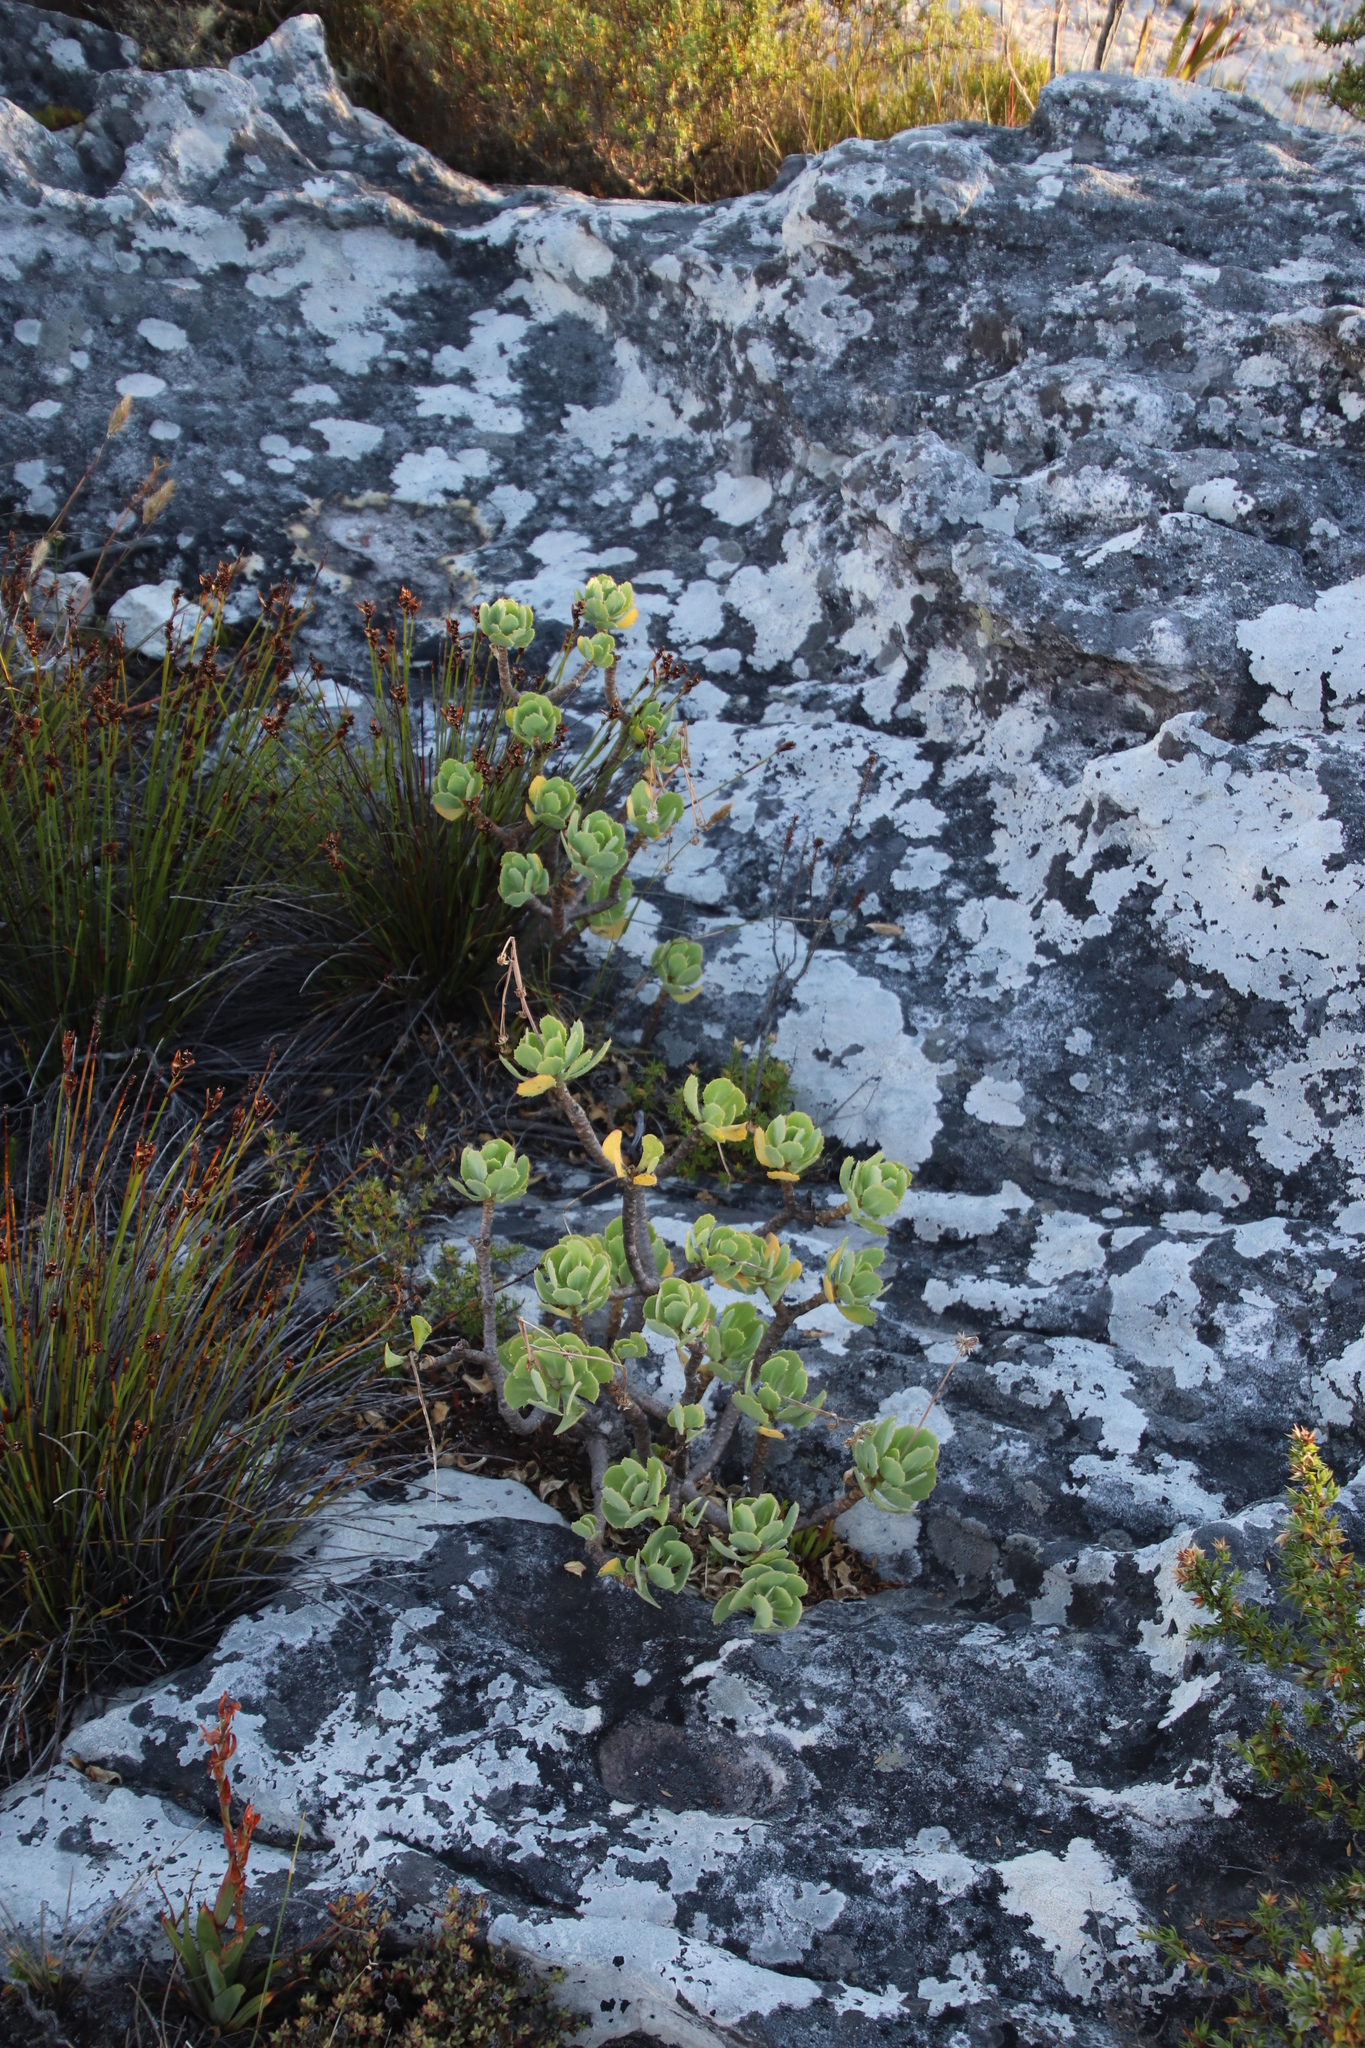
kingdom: Plantae
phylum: Tracheophyta
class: Magnoliopsida
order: Asterales
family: Asteraceae
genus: Othonna
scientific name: Othonna dentata
